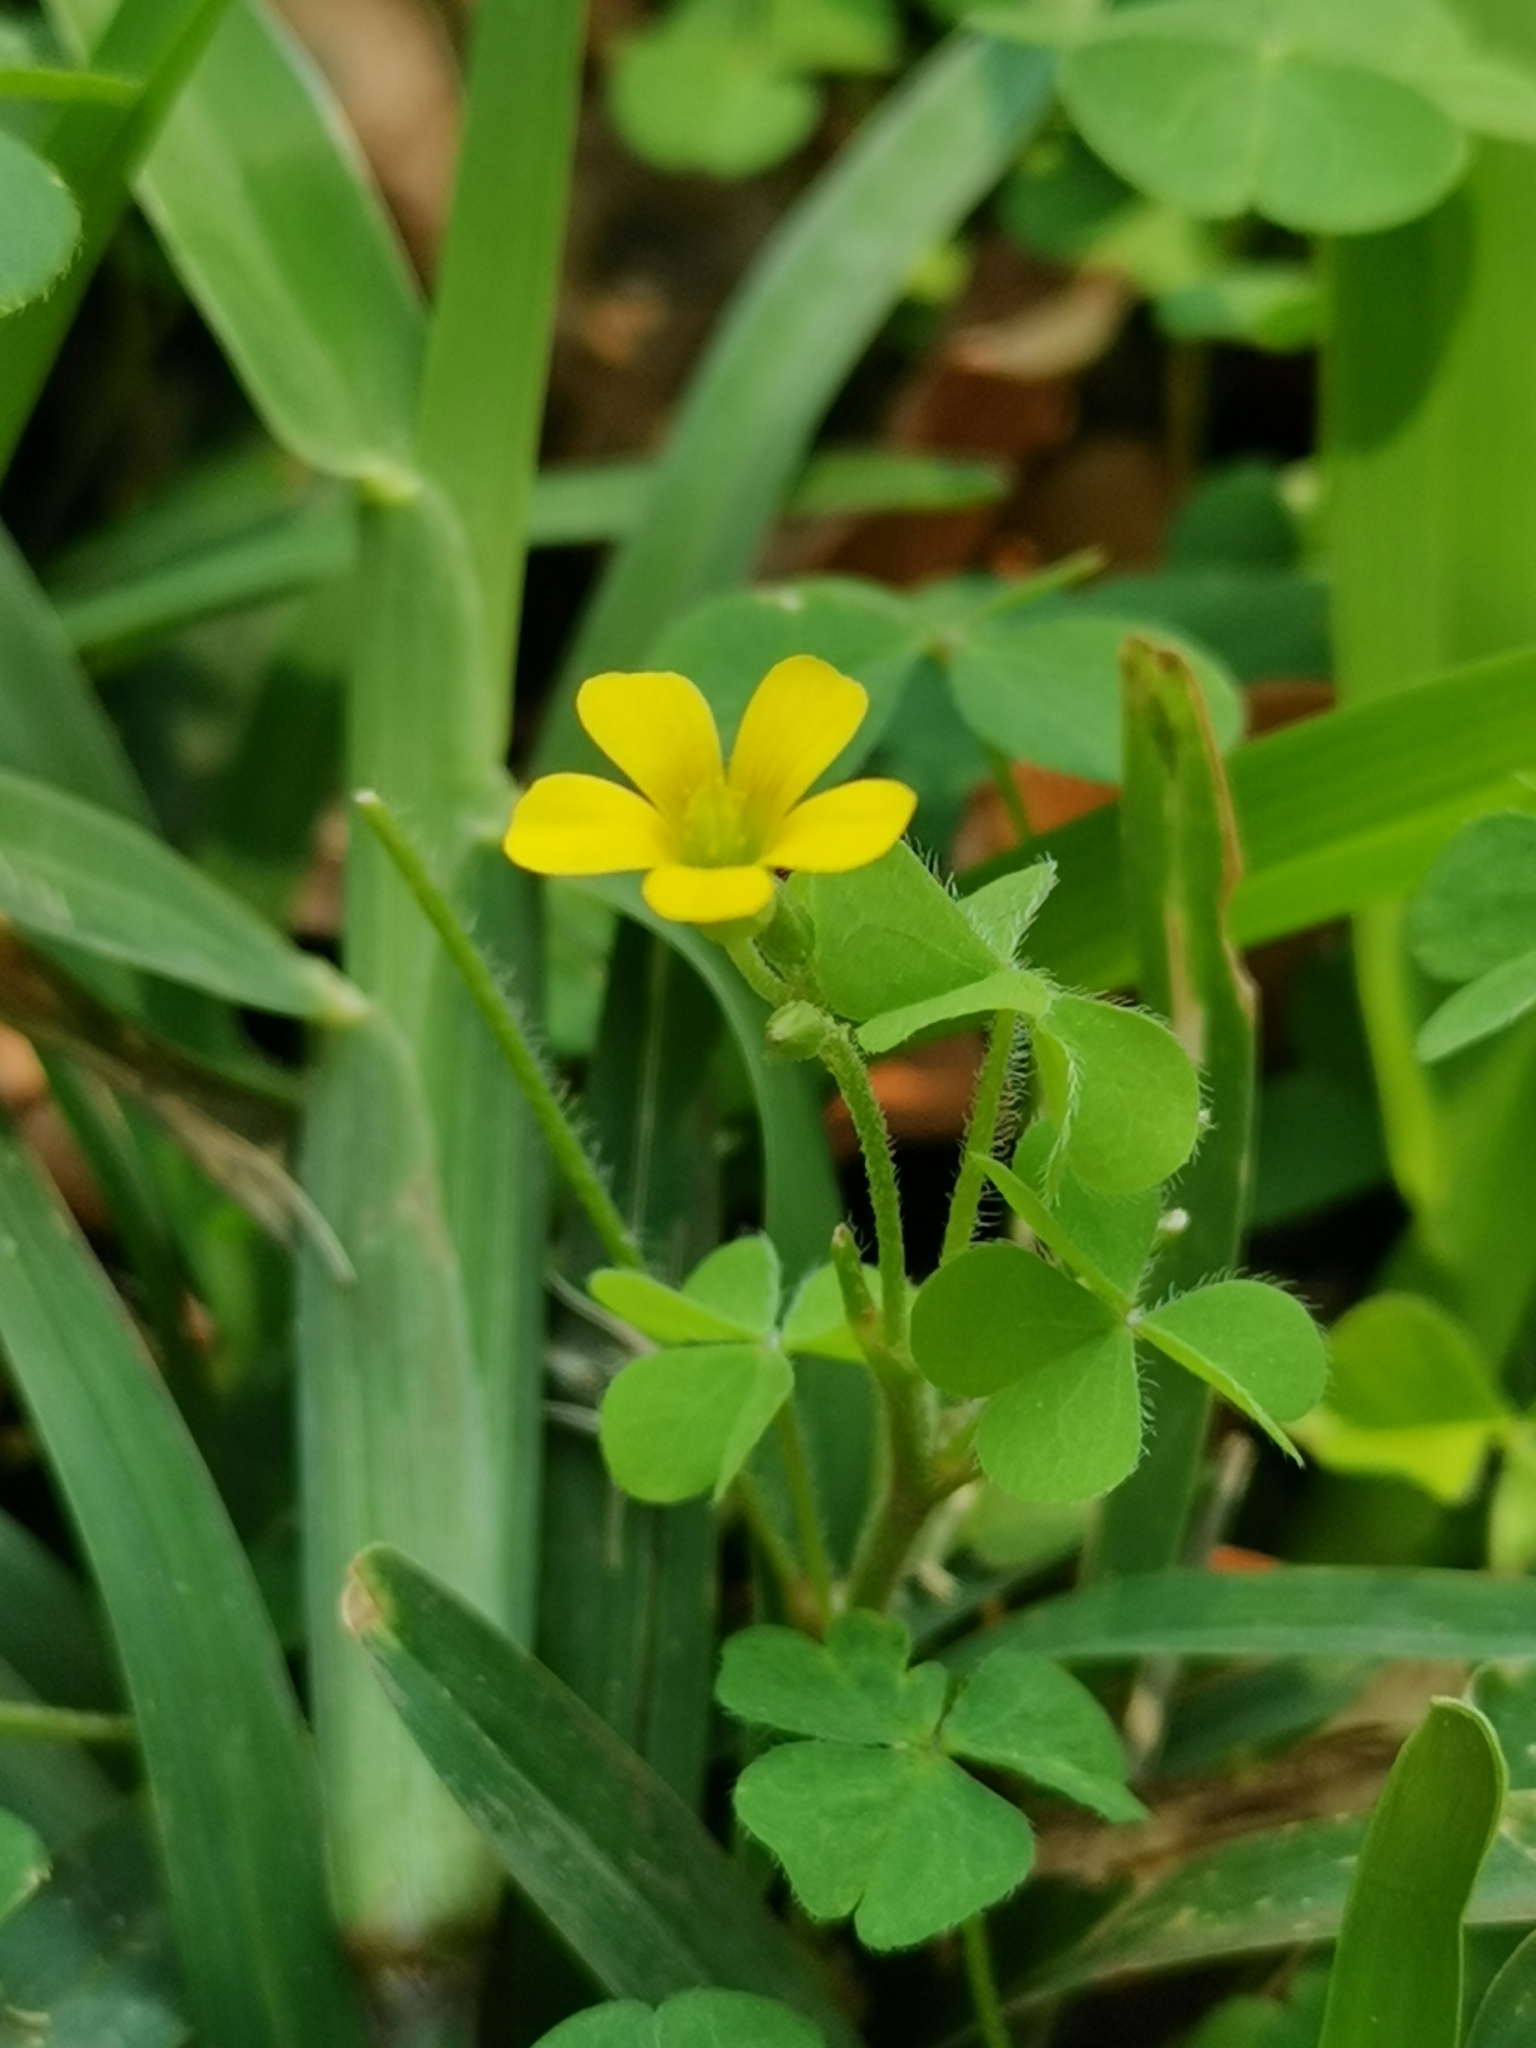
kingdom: Plantae
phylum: Tracheophyta
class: Magnoliopsida
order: Oxalidales
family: Oxalidaceae
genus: Oxalis
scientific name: Oxalis corniculata
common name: Procumbent yellow-sorrel
